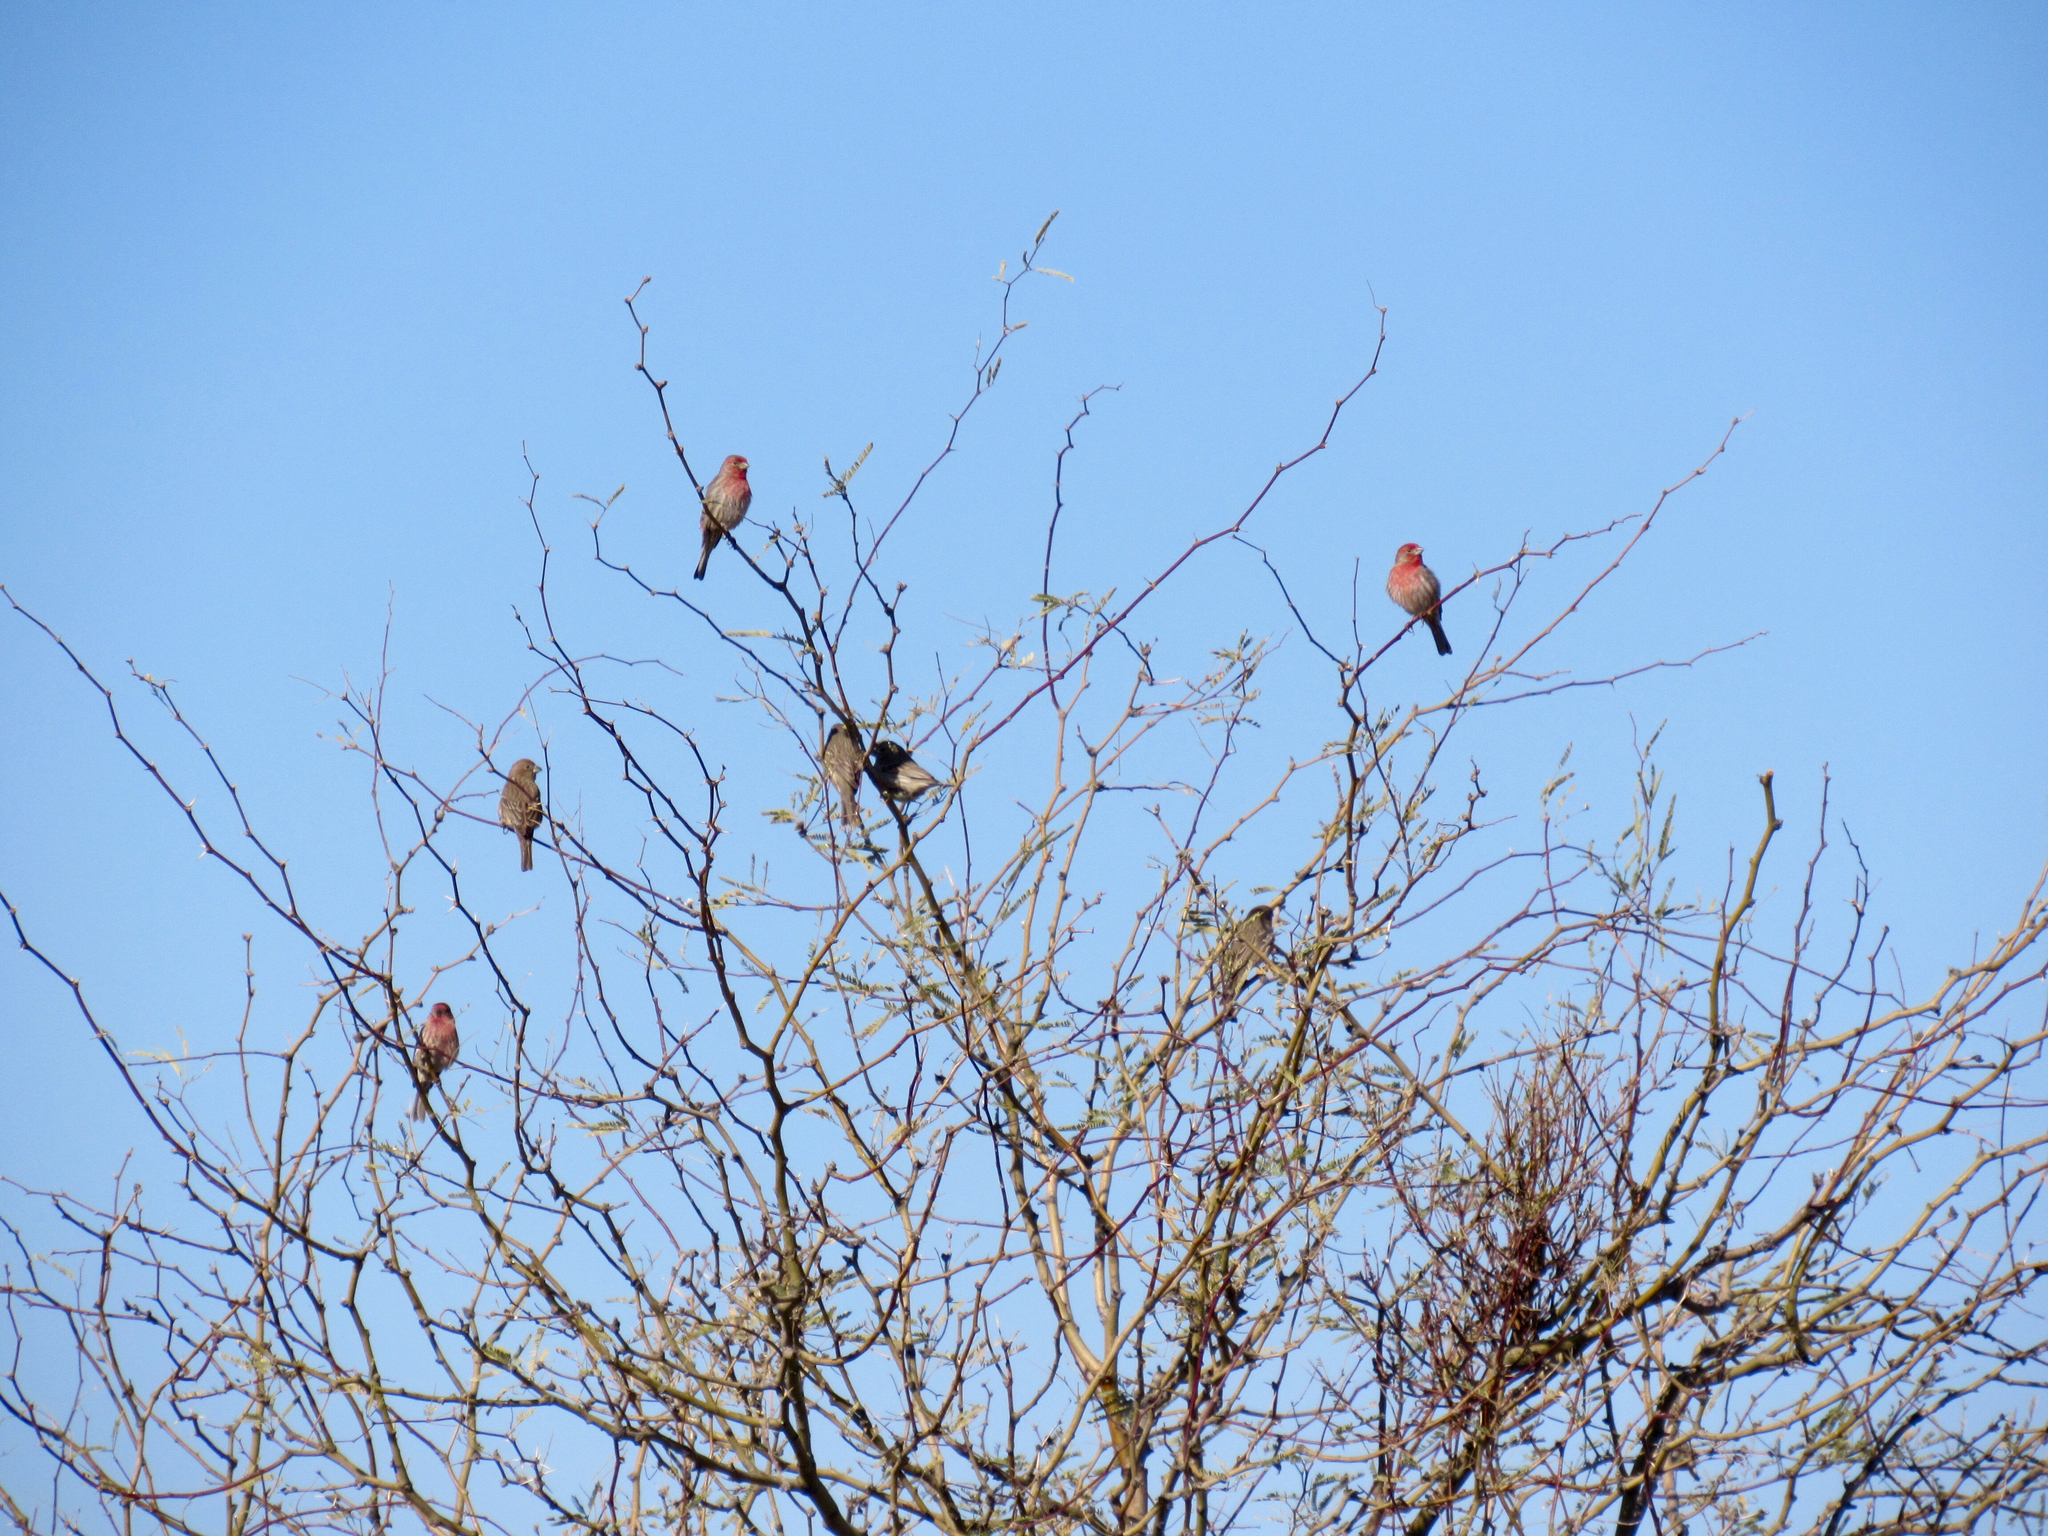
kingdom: Animalia
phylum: Chordata
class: Aves
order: Passeriformes
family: Fringillidae
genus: Haemorhous
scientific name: Haemorhous mexicanus
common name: House finch
